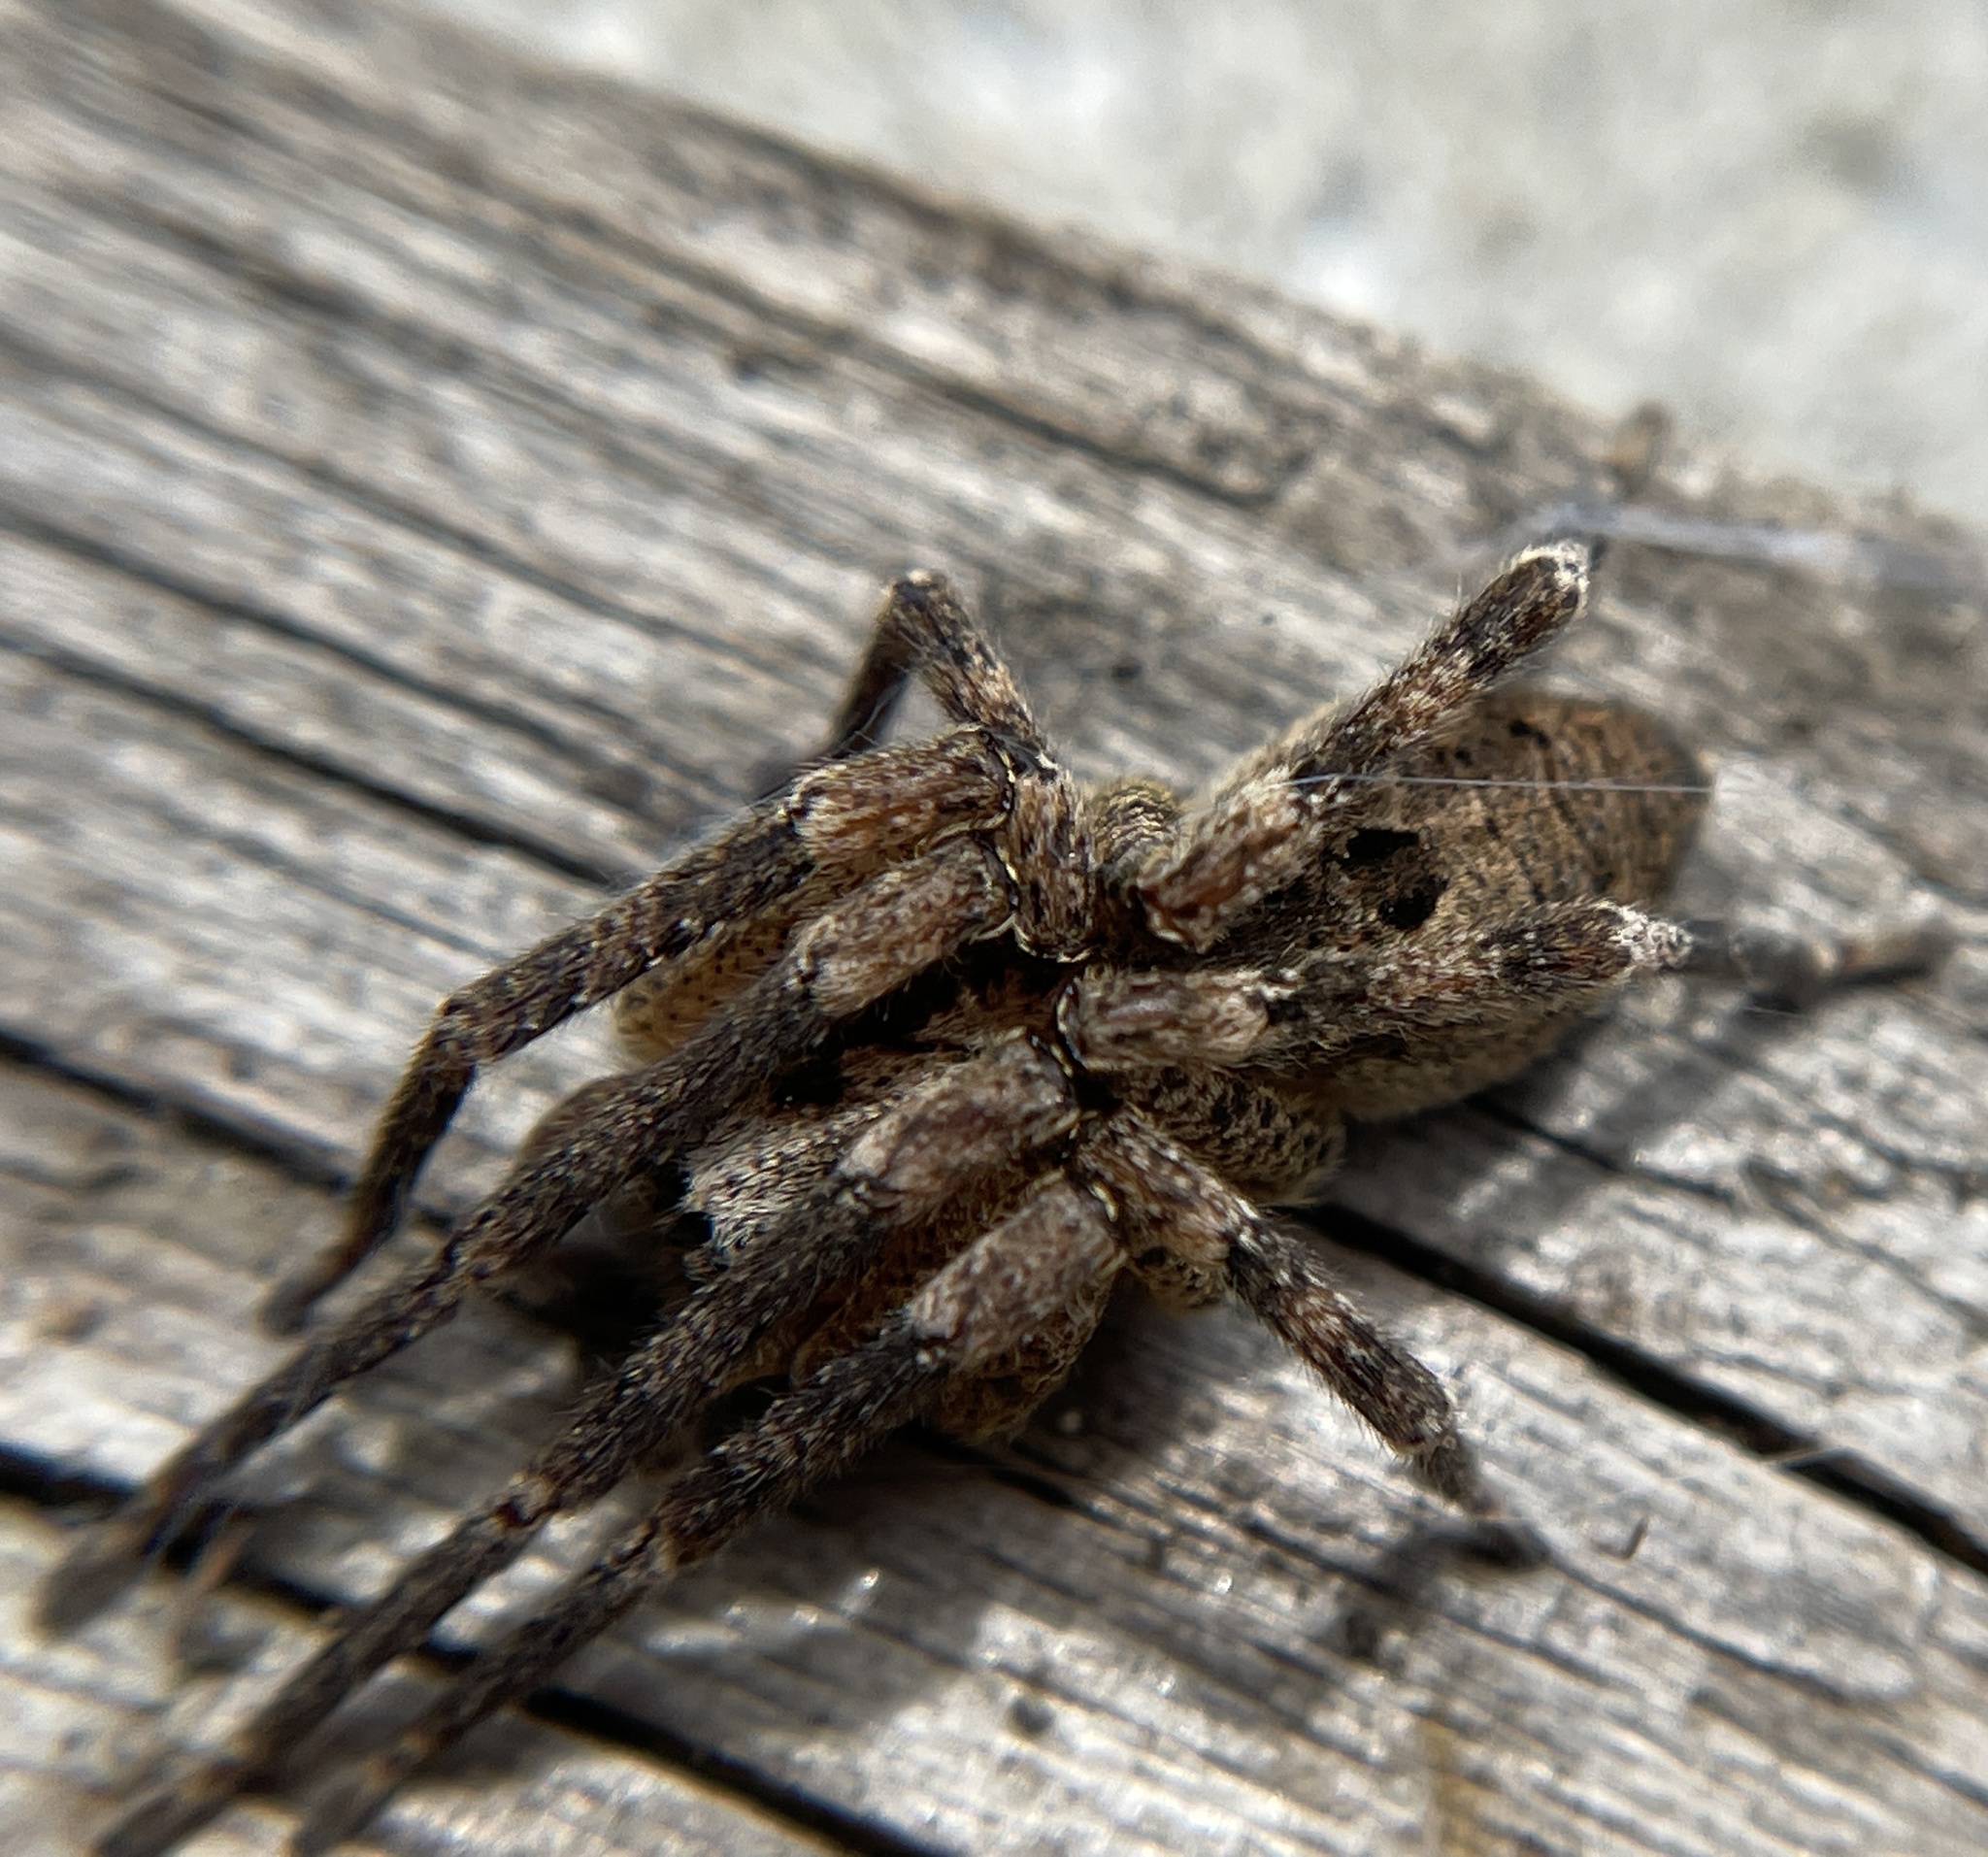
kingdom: Animalia
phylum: Arthropoda
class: Arachnida
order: Araneae
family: Zoropsidae
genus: Zoropsis
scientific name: Zoropsis spinimana
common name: Zoropsid spider
